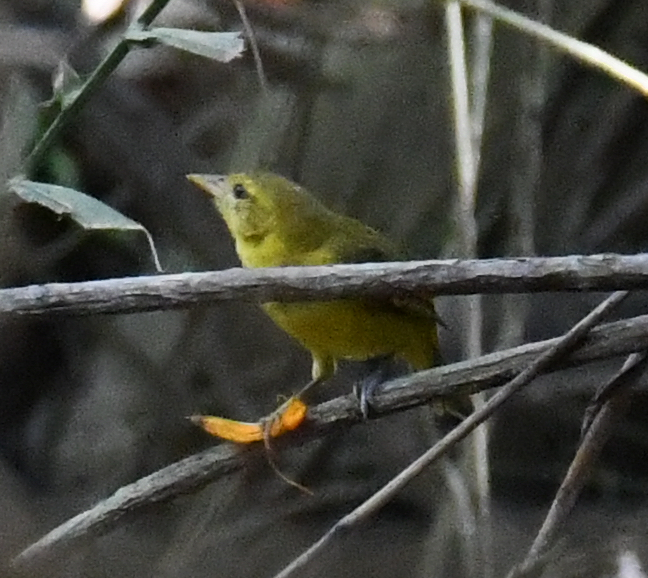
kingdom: Animalia
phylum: Chordata
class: Aves
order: Passeriformes
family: Ploceidae
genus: Ploceus
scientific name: Ploceus pelzelni
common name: Slender-billed weaver
